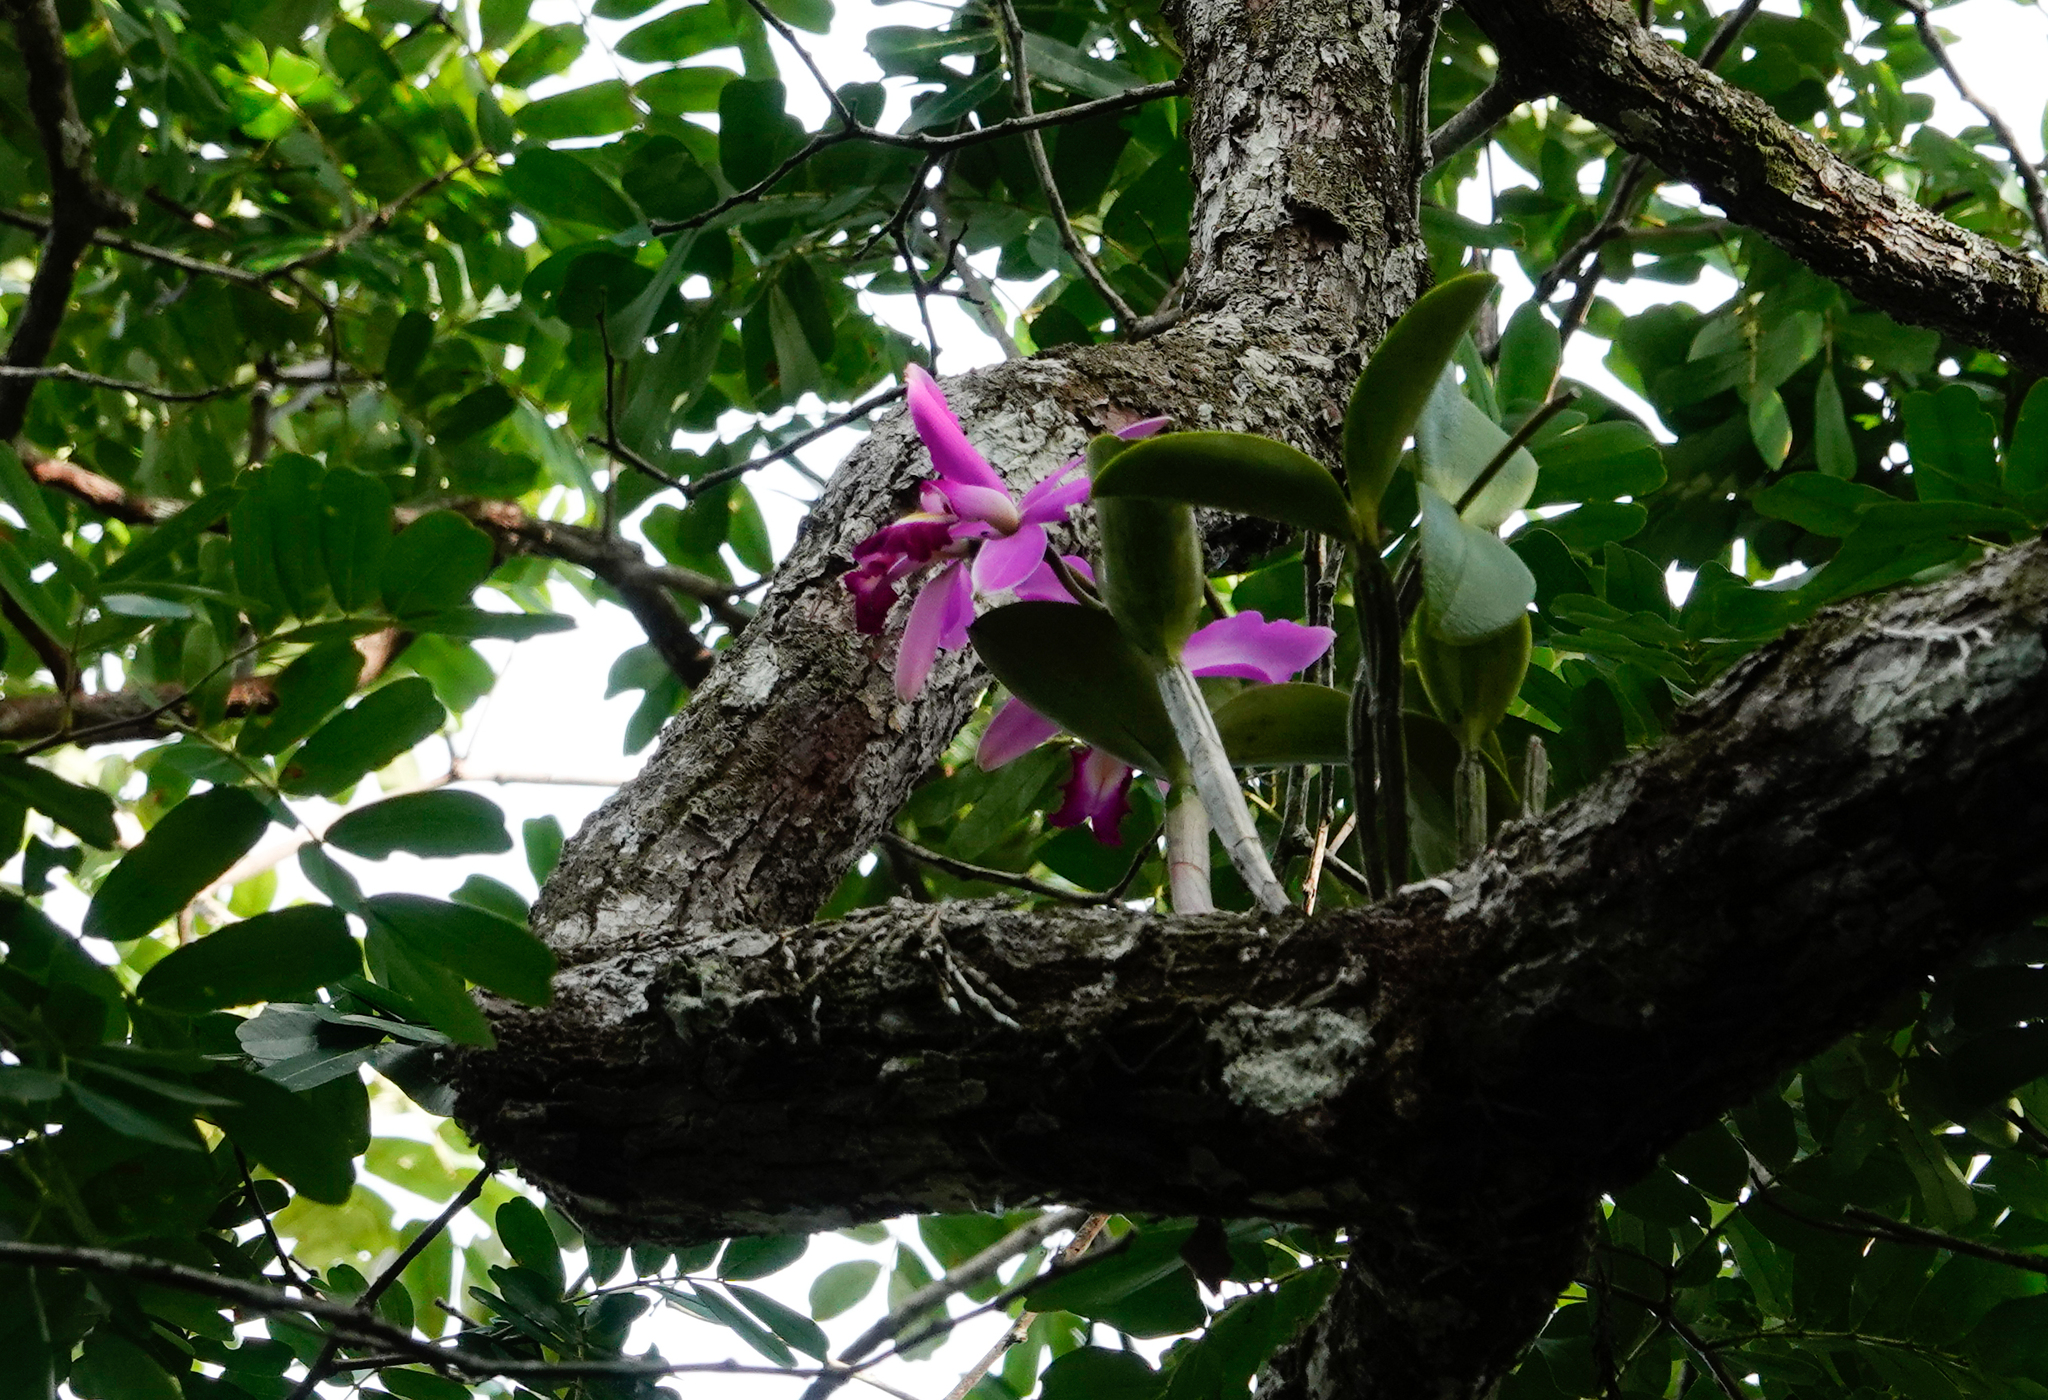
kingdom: Plantae
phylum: Tracheophyta
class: Liliopsida
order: Asparagales
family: Orchidaceae
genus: Cattleya
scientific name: Cattleya violacea
